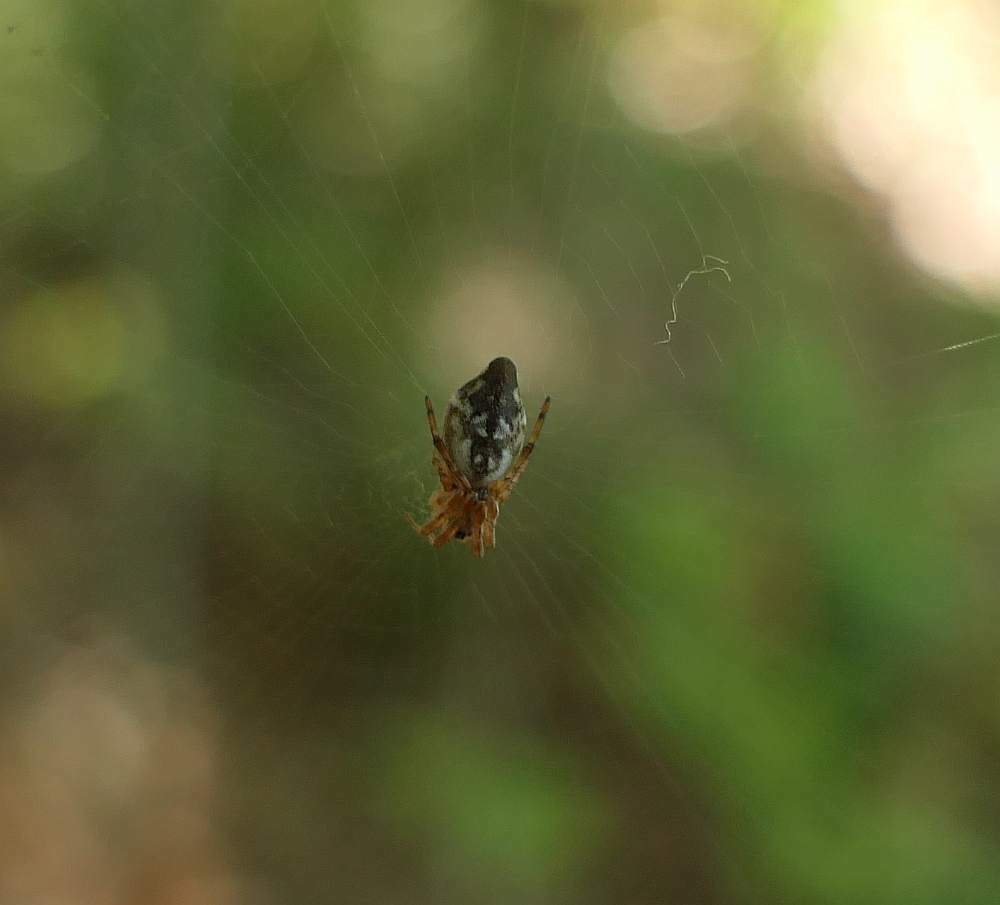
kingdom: Animalia
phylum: Arthropoda
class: Arachnida
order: Araneae
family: Araneidae
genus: Cyclosa
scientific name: Cyclosa conica
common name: Conical trashline orbweaver
